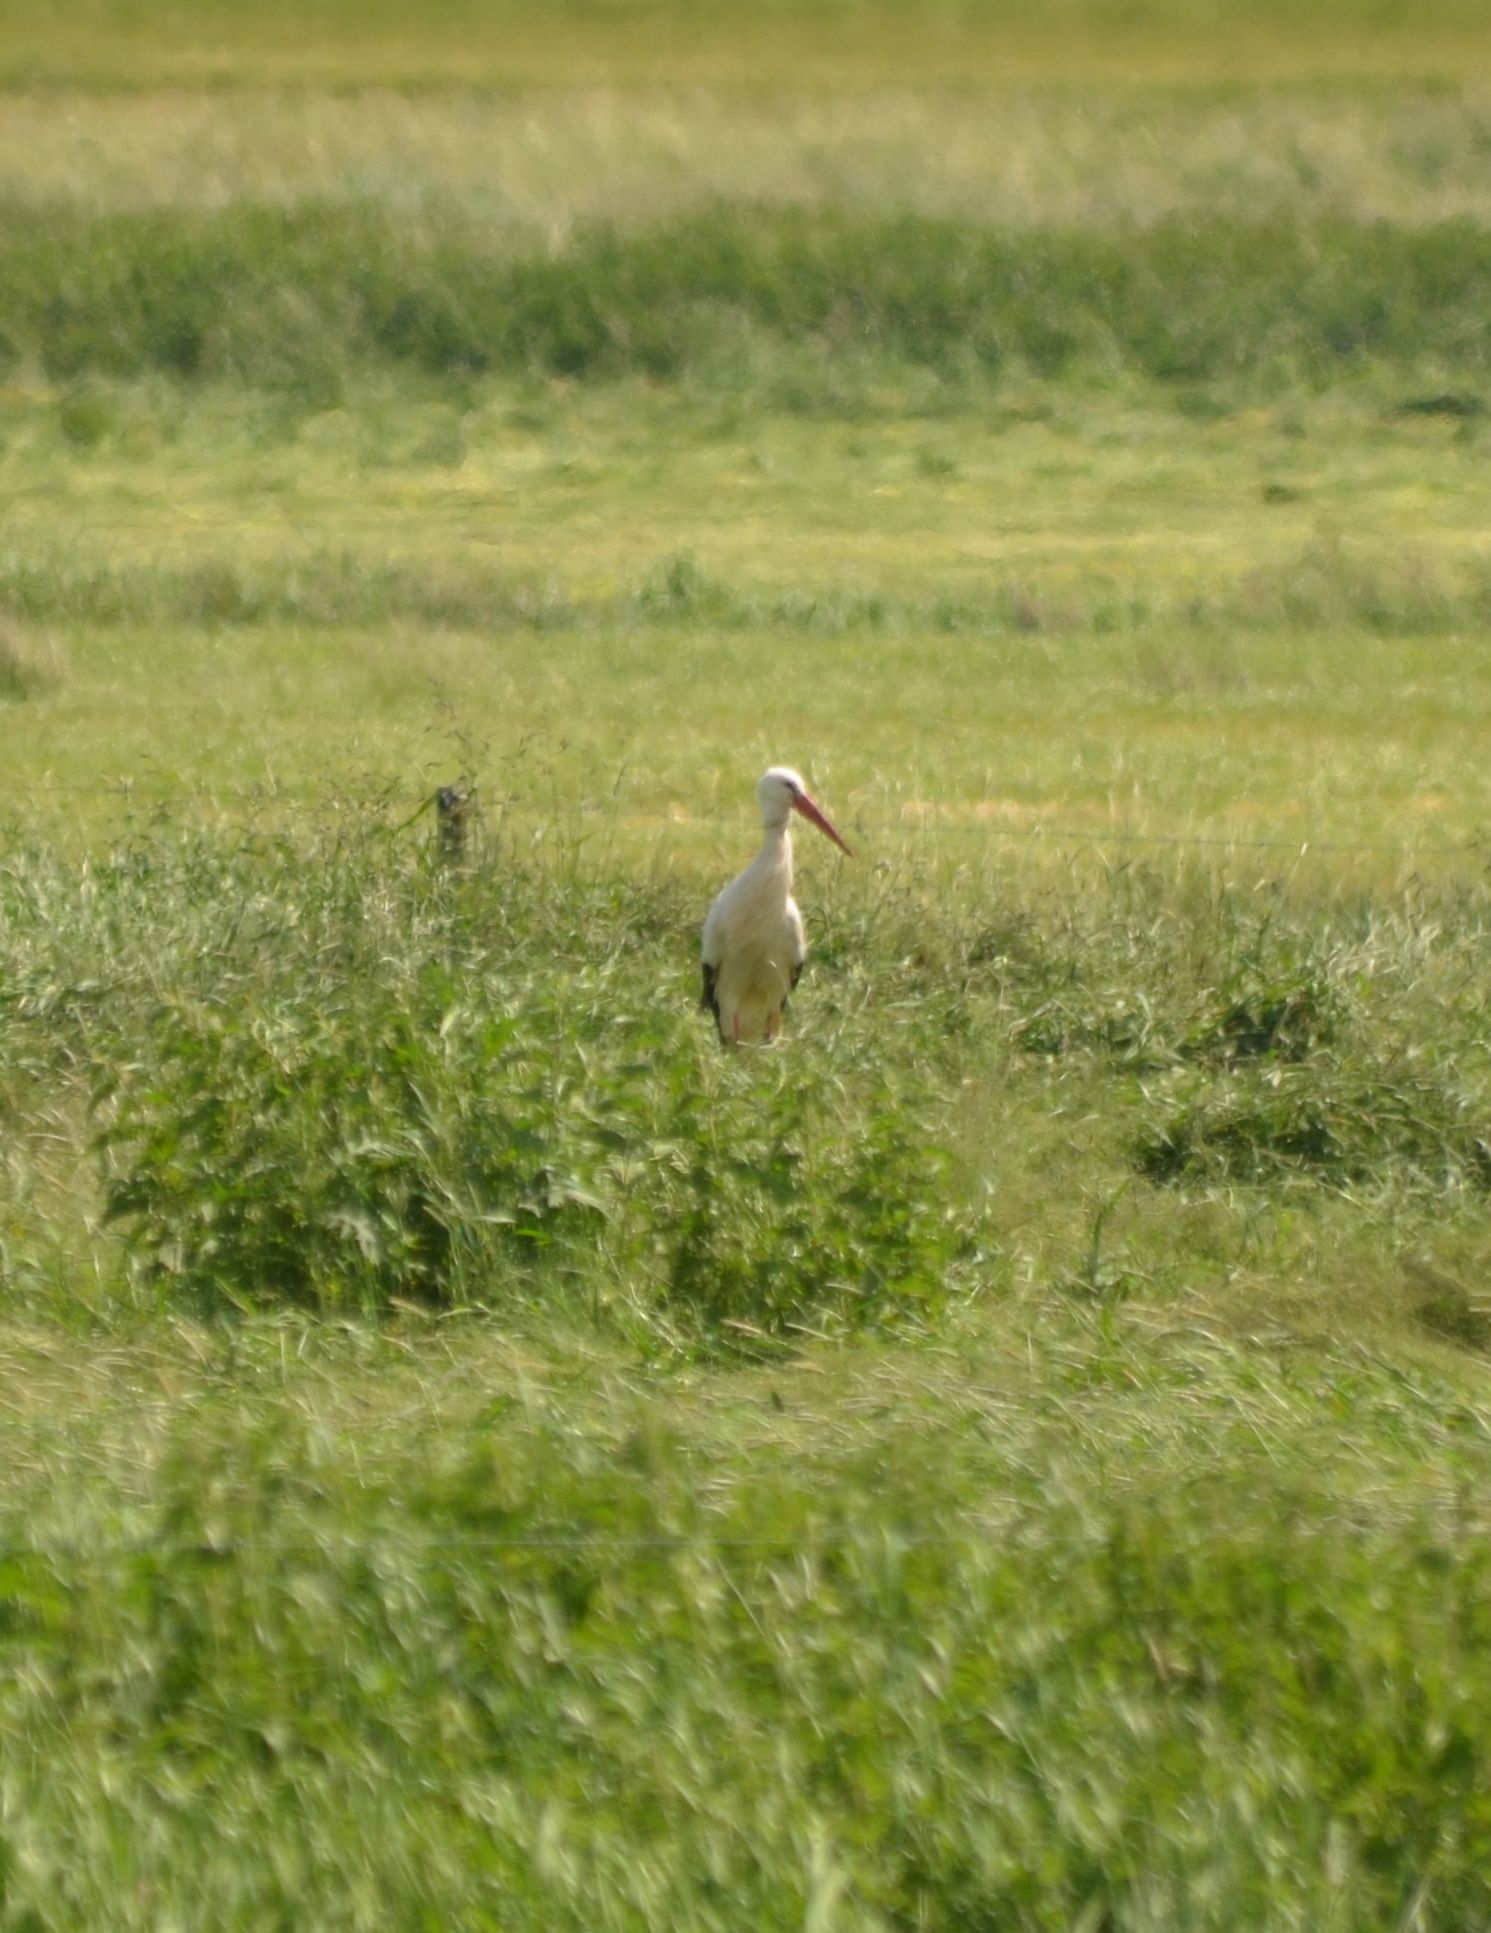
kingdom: Animalia
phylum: Chordata
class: Aves
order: Ciconiiformes
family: Ciconiidae
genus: Ciconia
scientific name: Ciconia ciconia
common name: White stork
